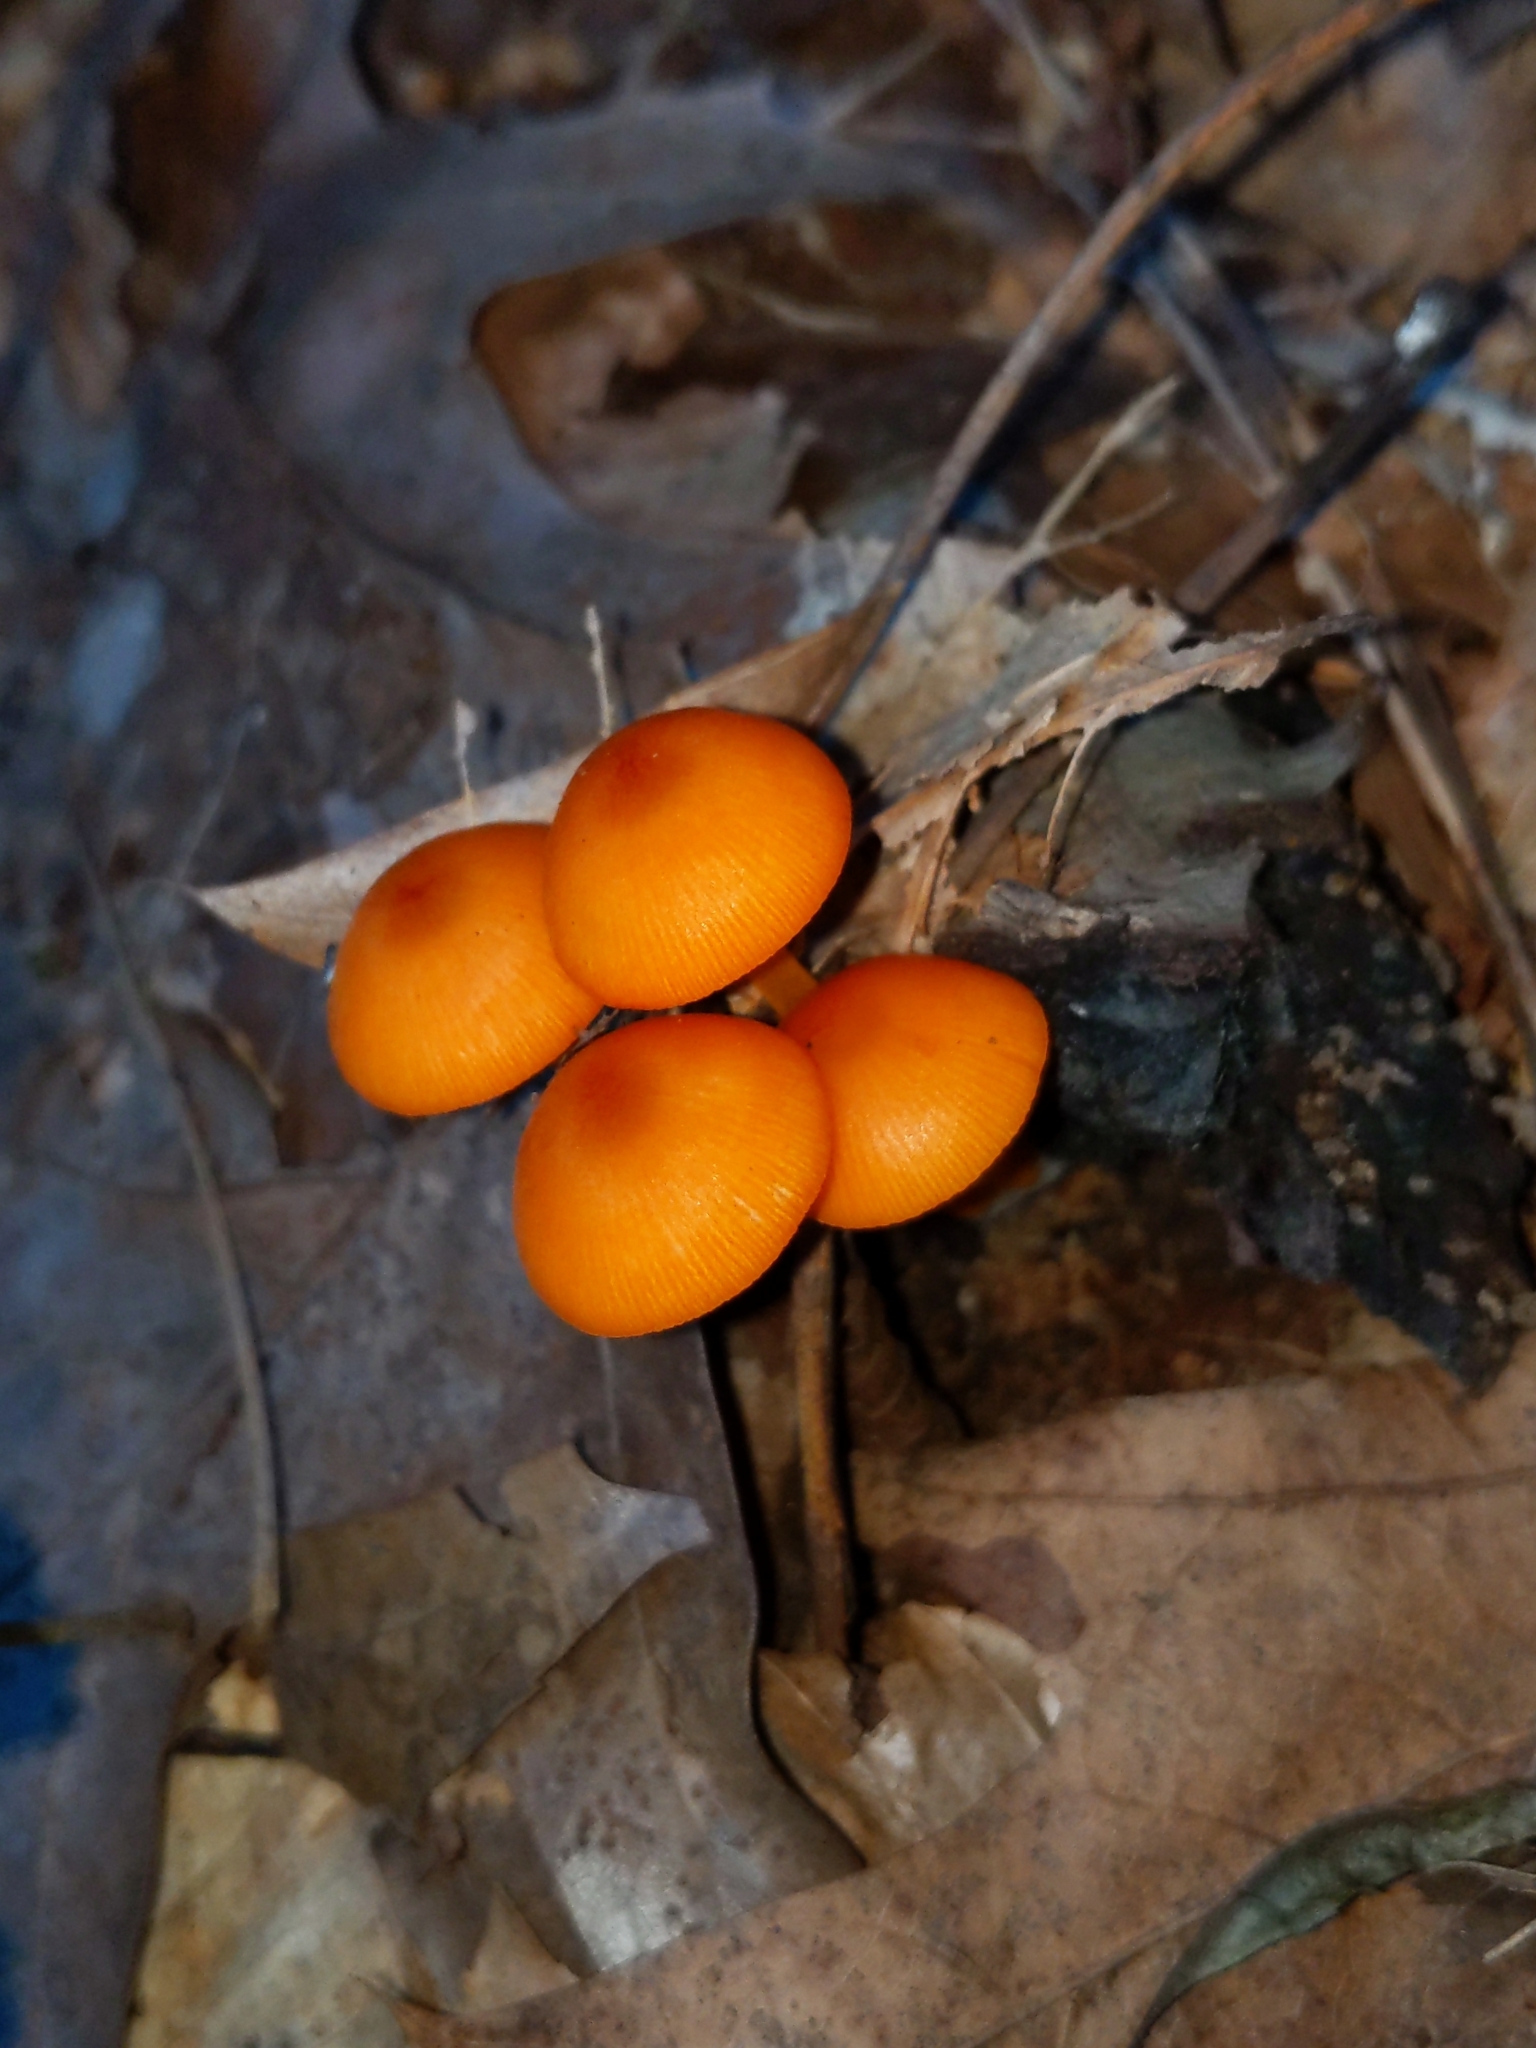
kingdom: Fungi
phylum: Basidiomycota
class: Agaricomycetes
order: Agaricales
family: Mycenaceae
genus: Mycena
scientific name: Mycena leaiana
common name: Orange mycena
